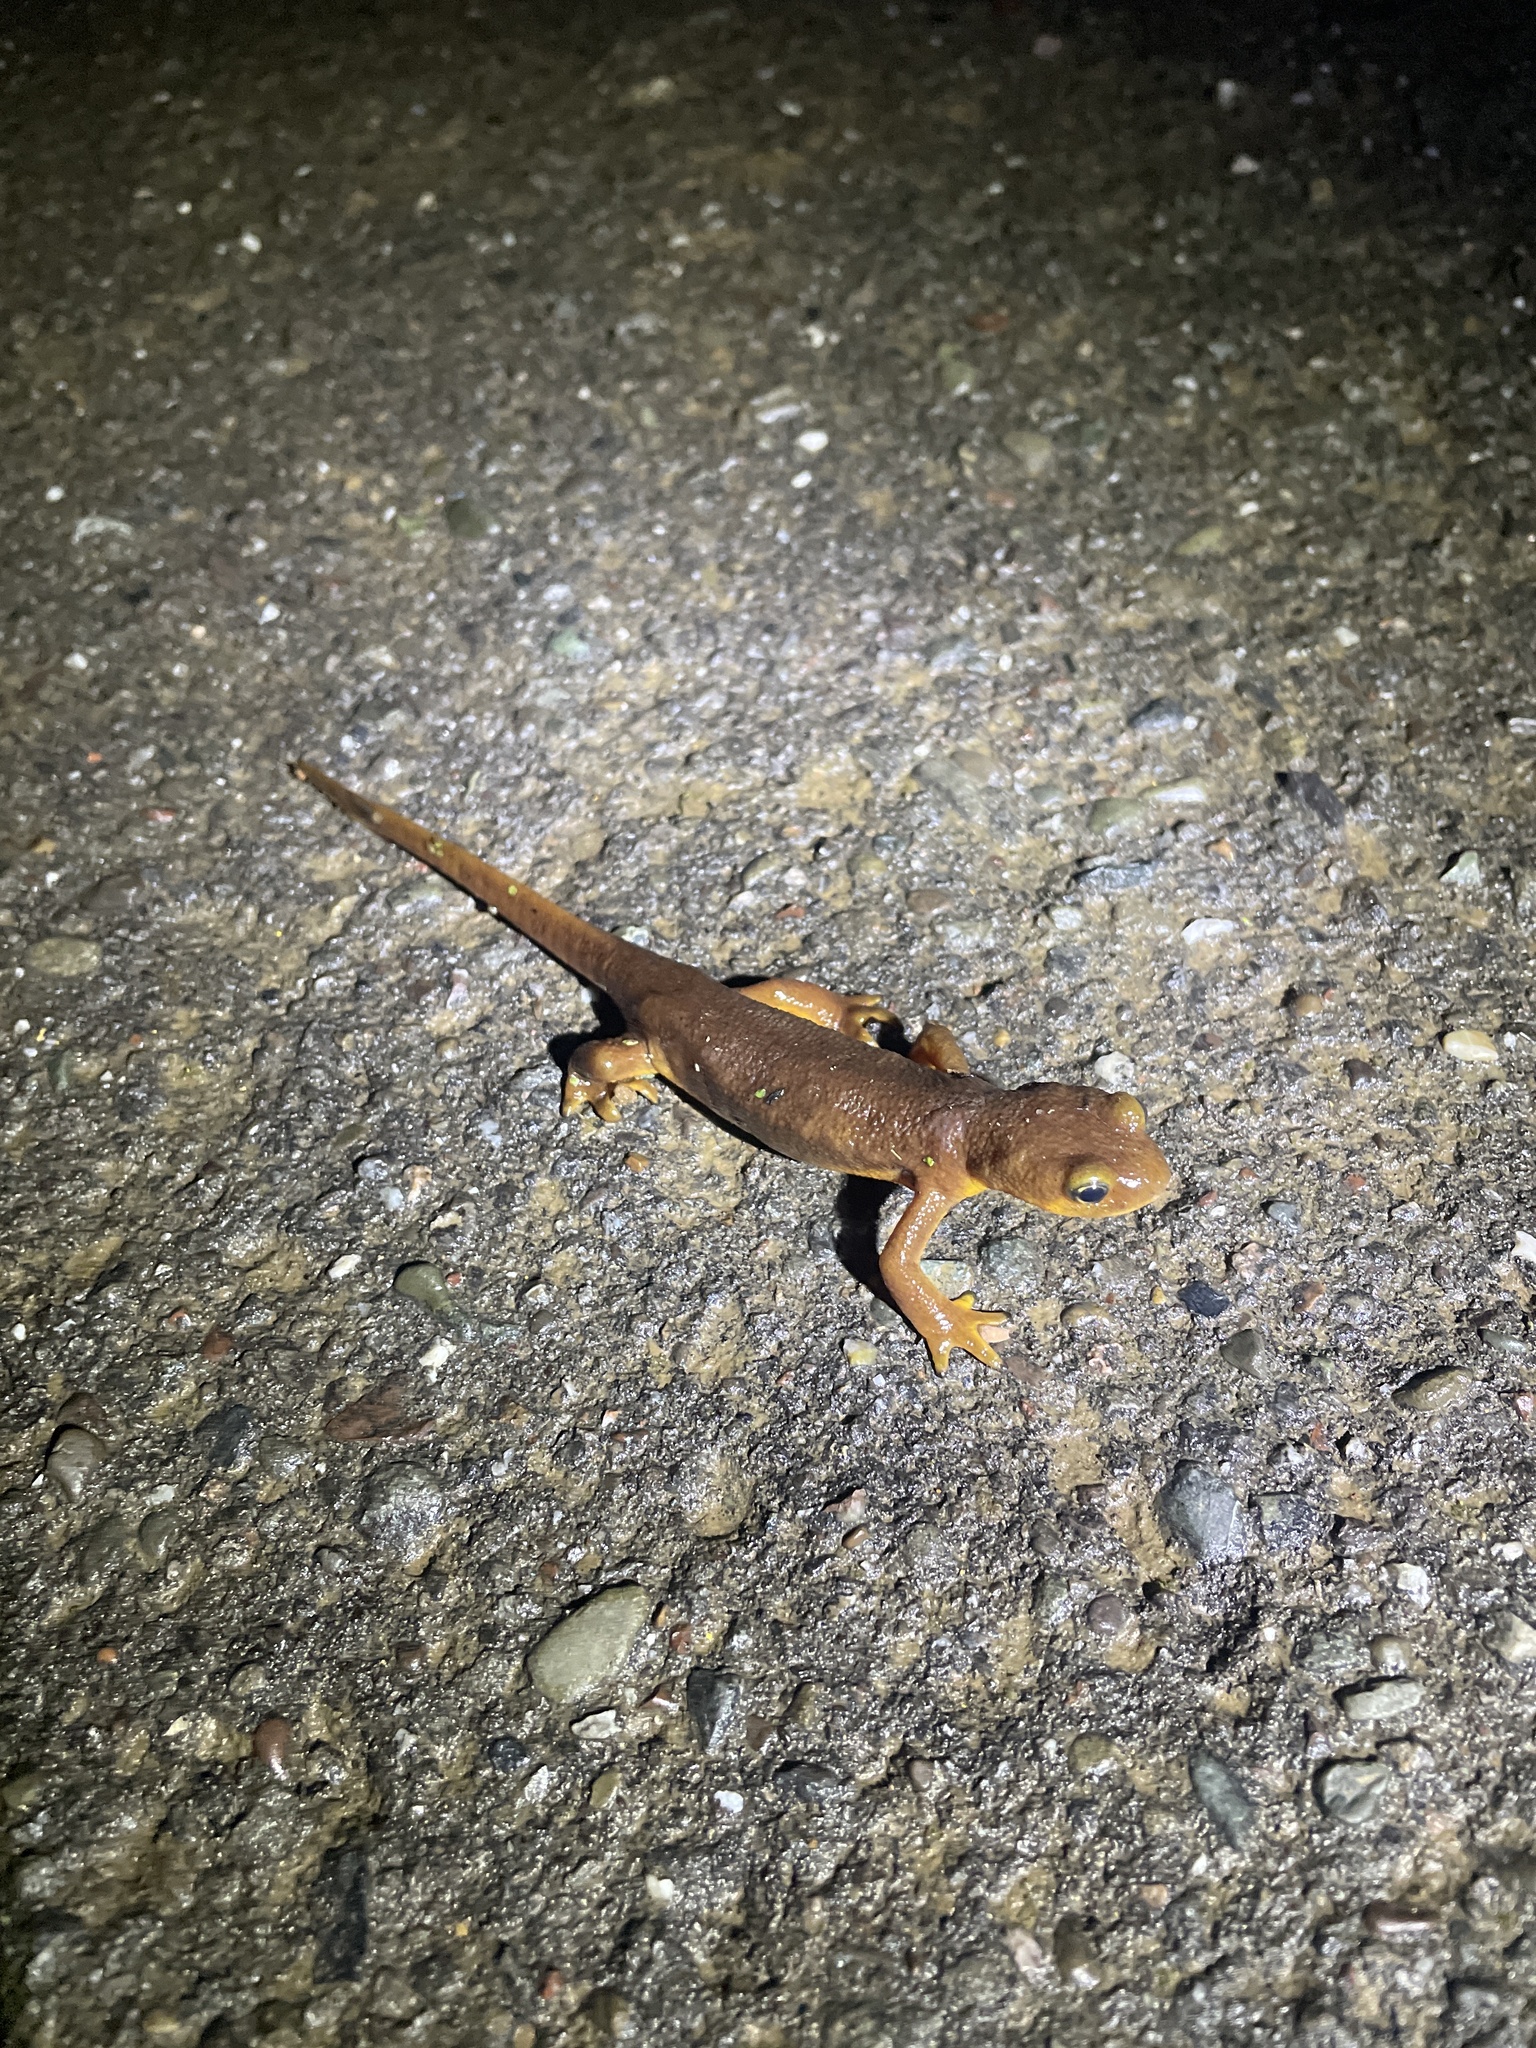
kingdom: Animalia
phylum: Chordata
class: Amphibia
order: Caudata
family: Salamandridae
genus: Taricha
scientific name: Taricha torosa
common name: California newt
